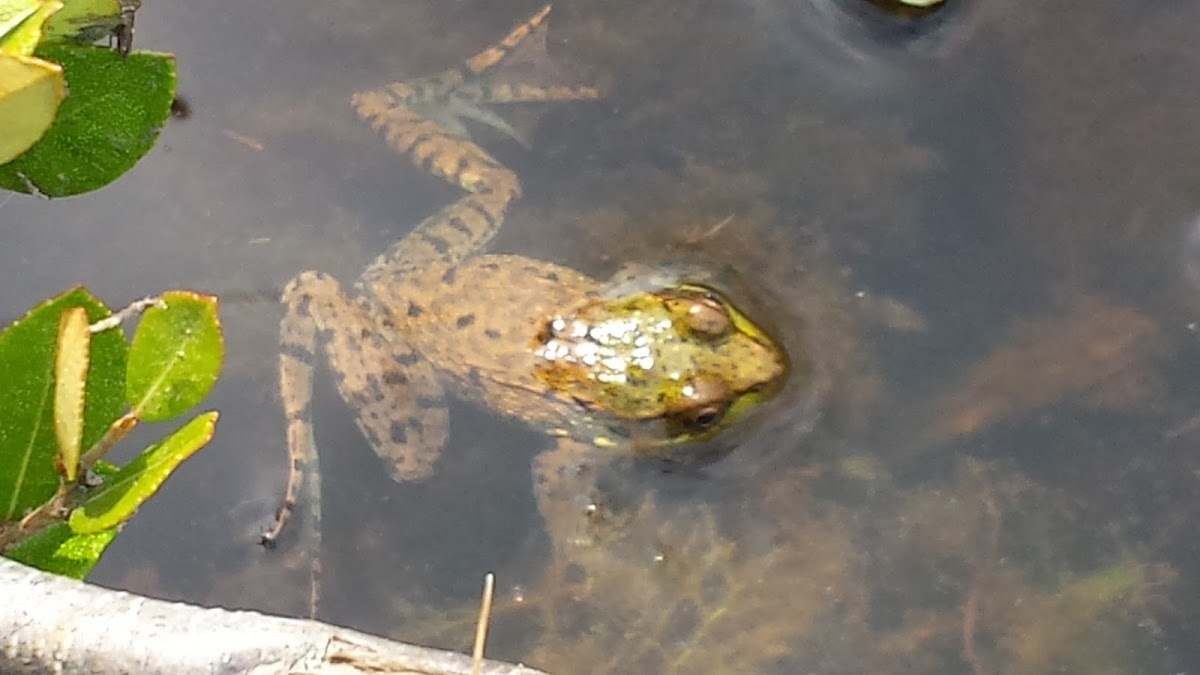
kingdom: Animalia
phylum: Chordata
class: Amphibia
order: Anura
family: Ranidae
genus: Lithobates
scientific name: Lithobates clamitans
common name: Green frog
